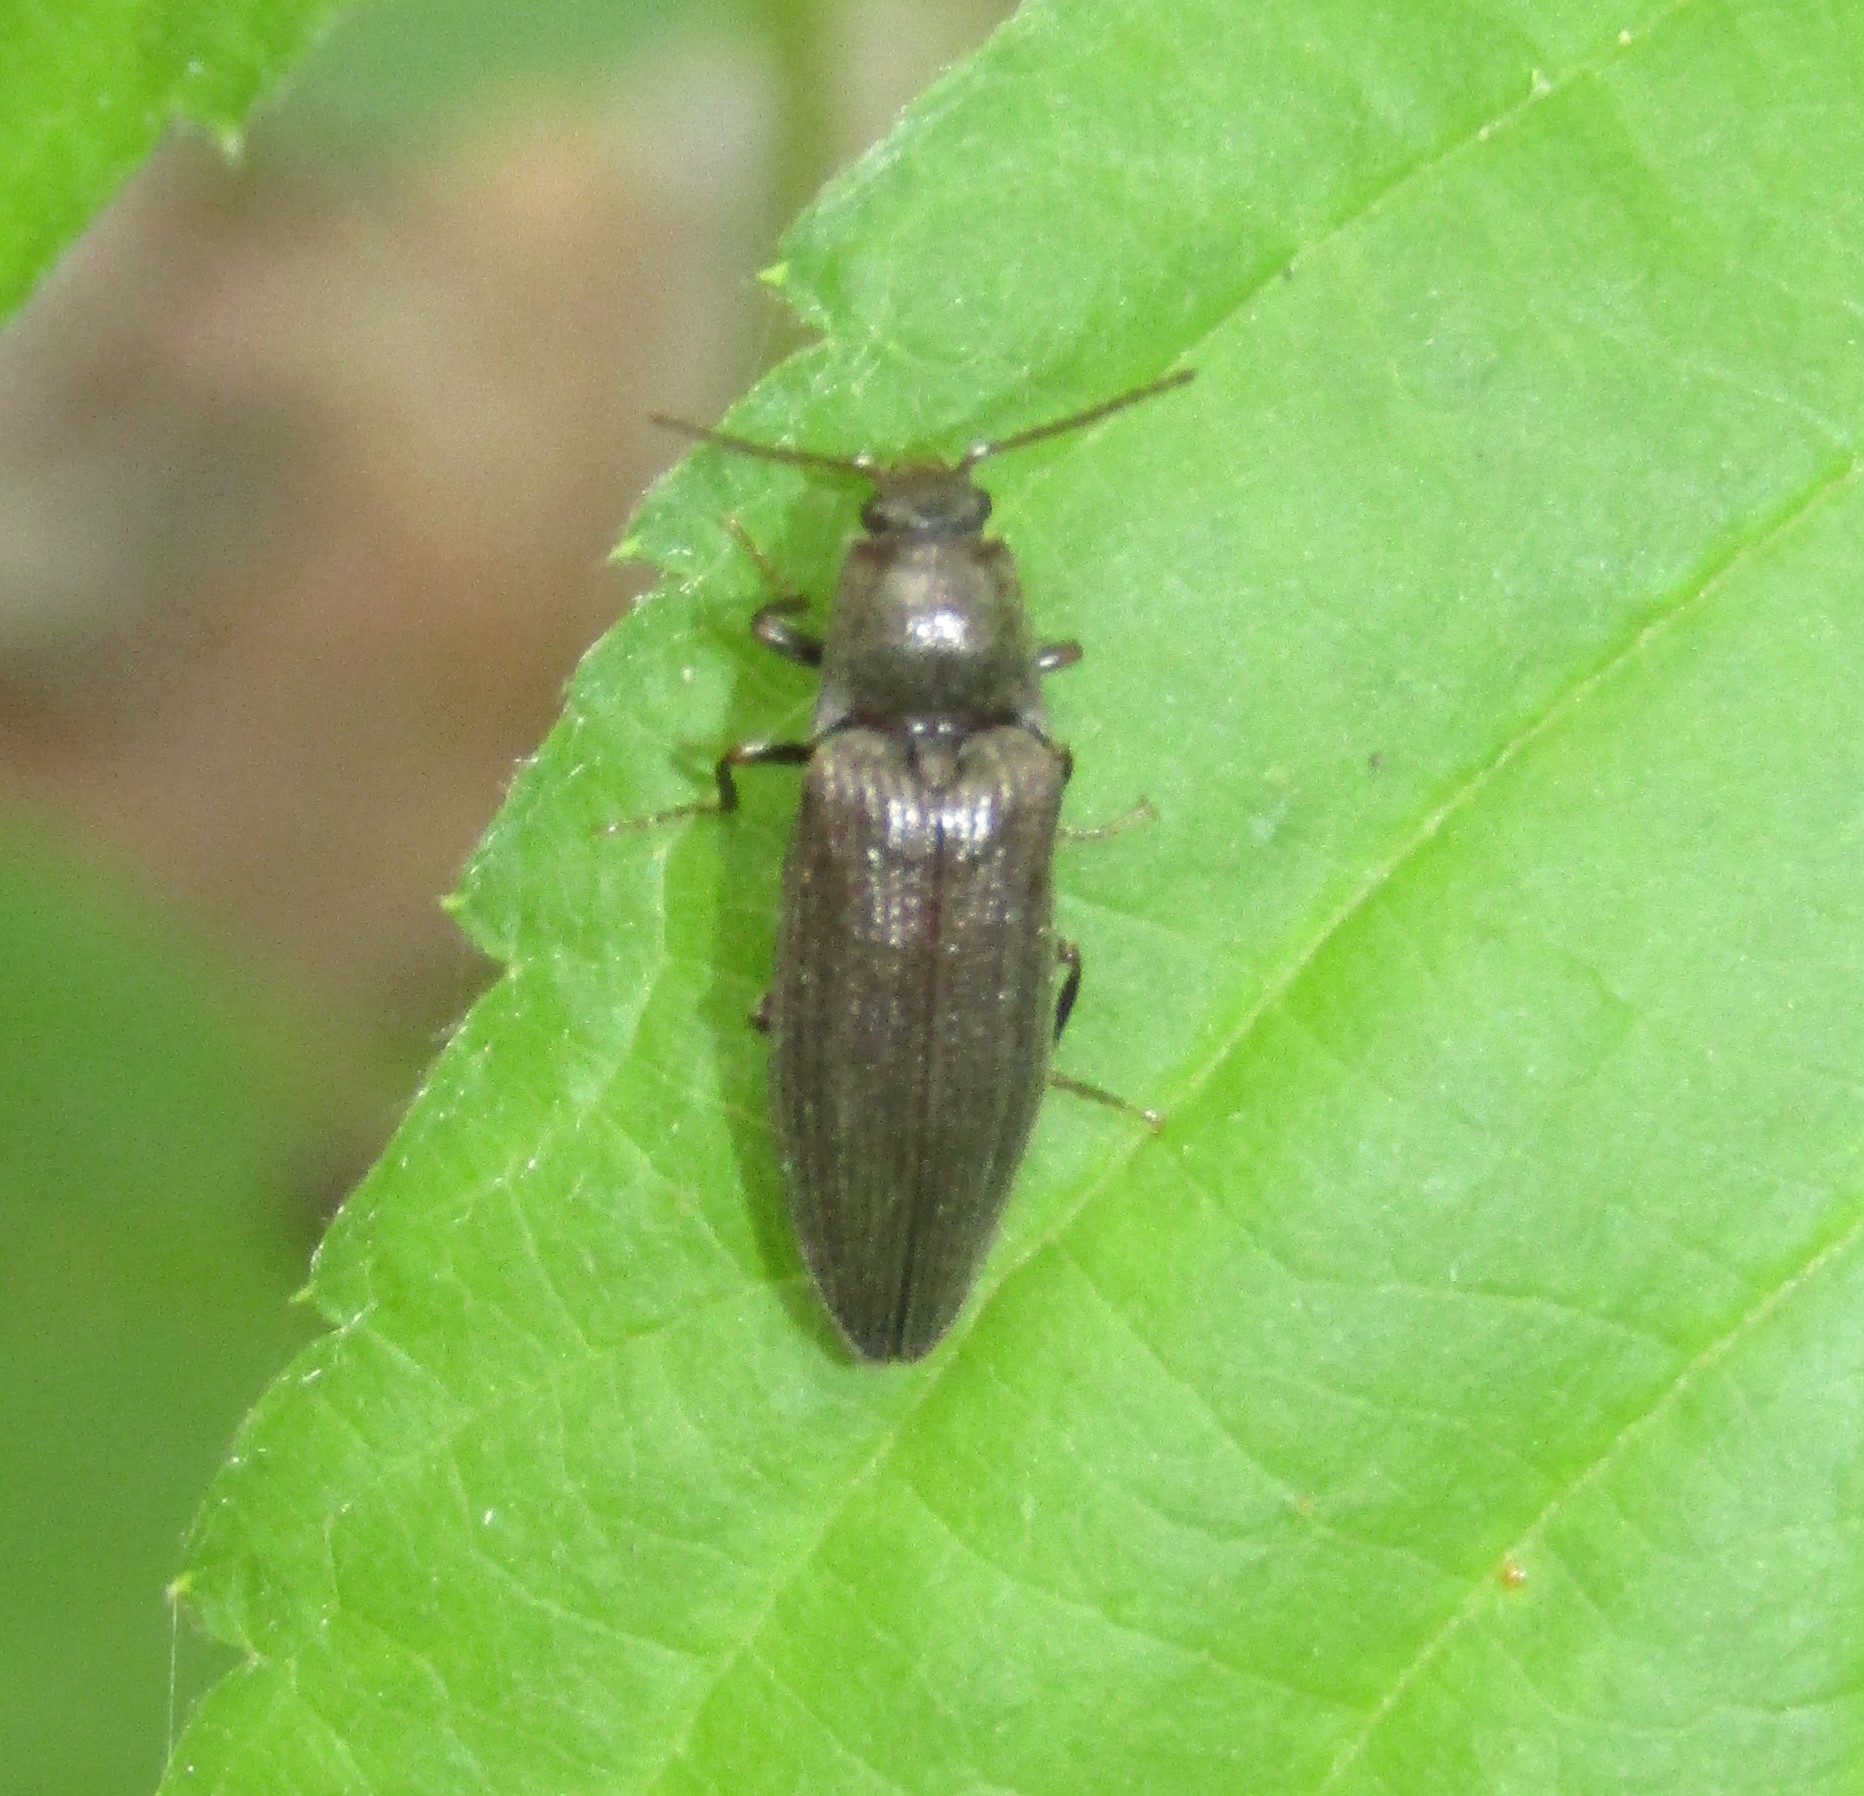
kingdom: Animalia
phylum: Arthropoda
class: Insecta
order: Coleoptera
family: Elateridae
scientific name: Elateridae
